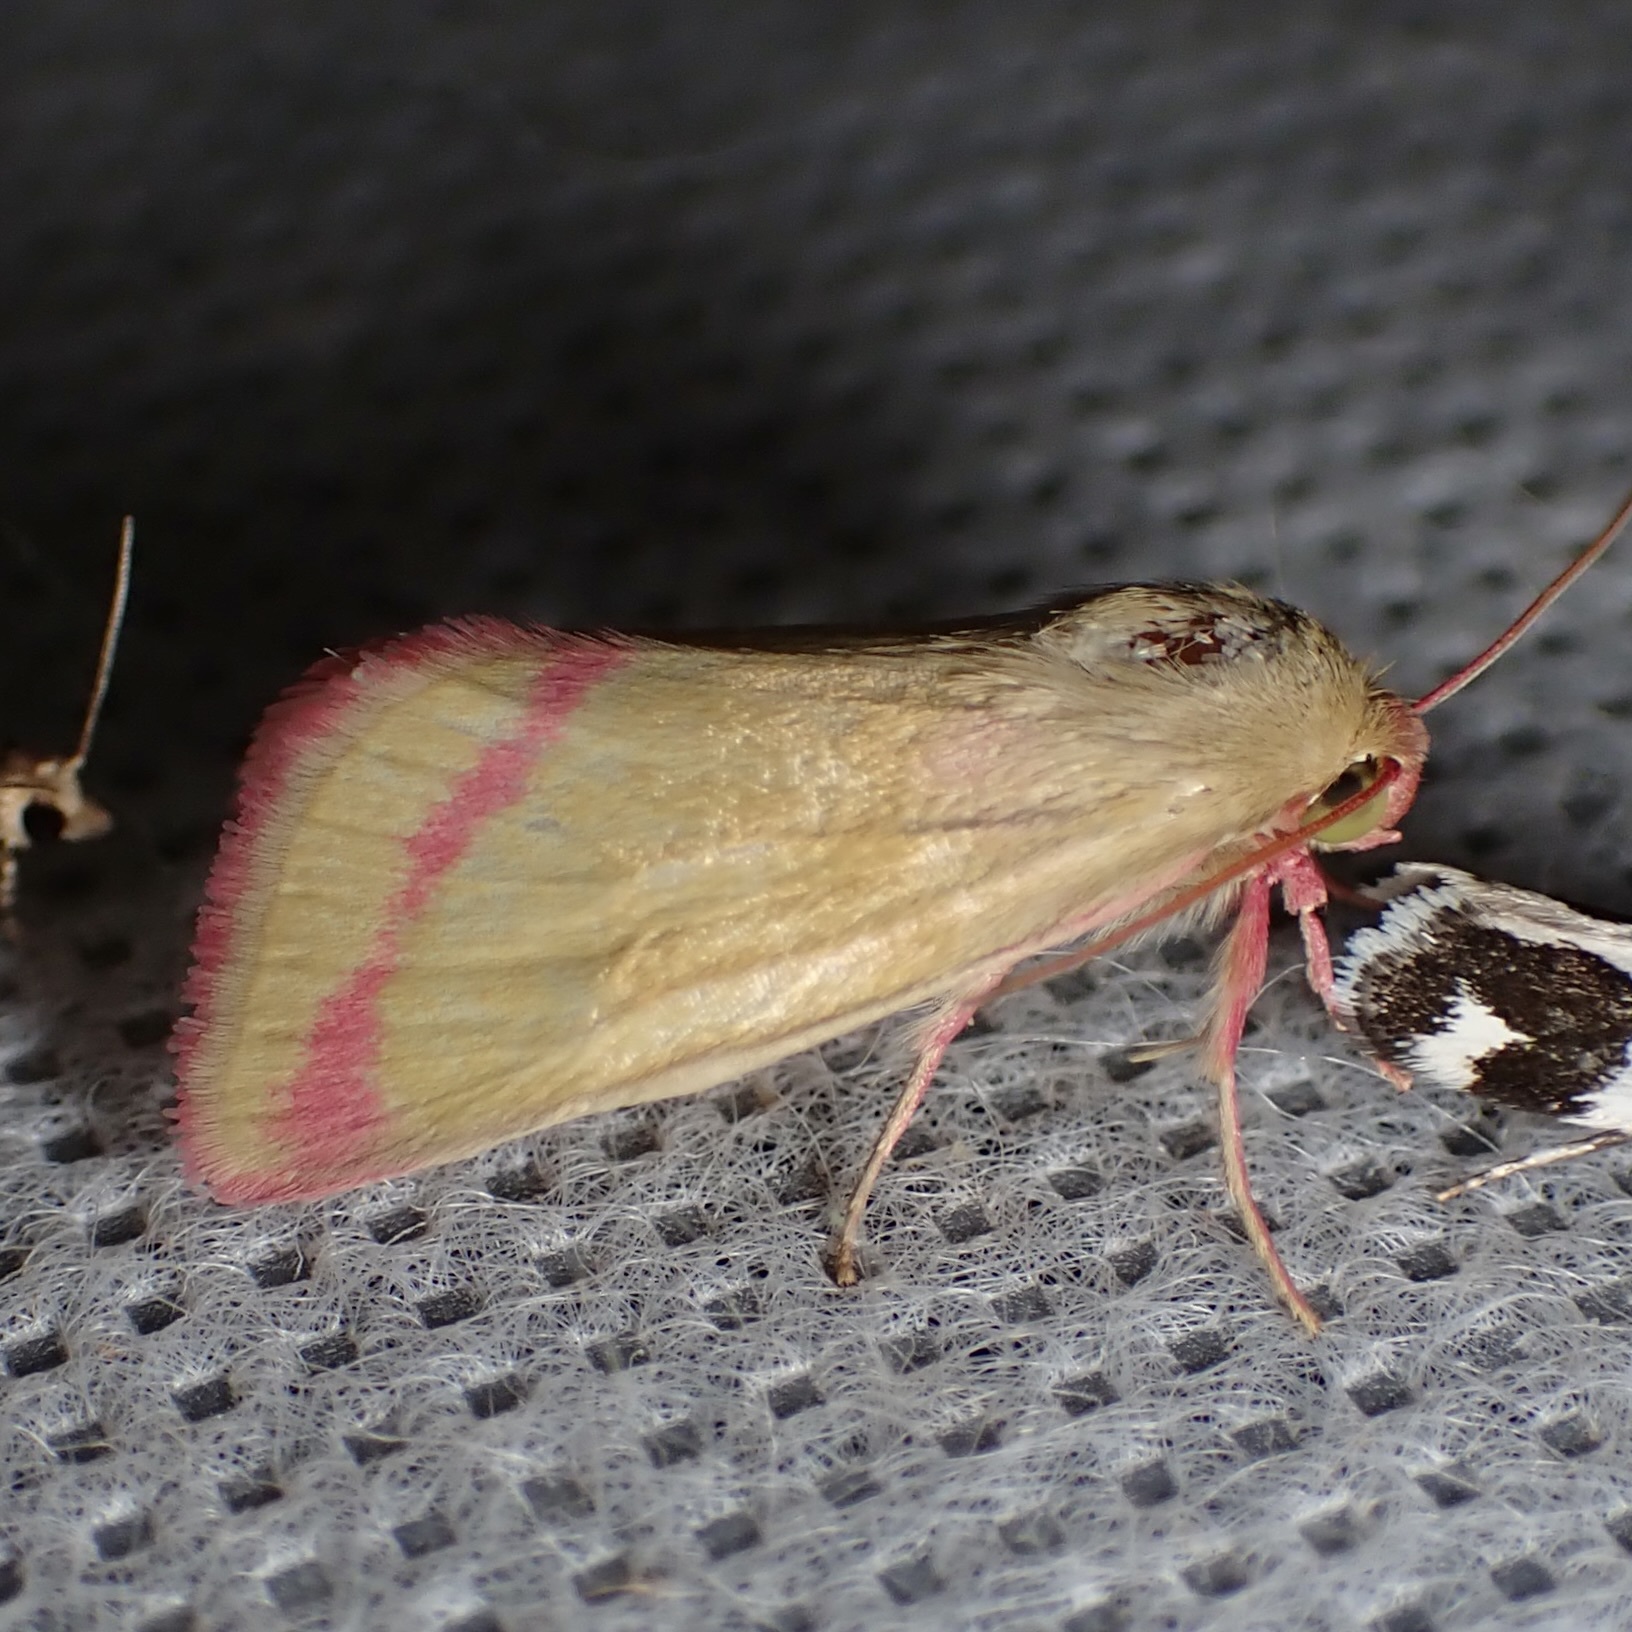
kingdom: Animalia
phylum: Arthropoda
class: Insecta
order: Lepidoptera
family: Noctuidae
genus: Heliocheilus
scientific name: Heliocheilus toralis
